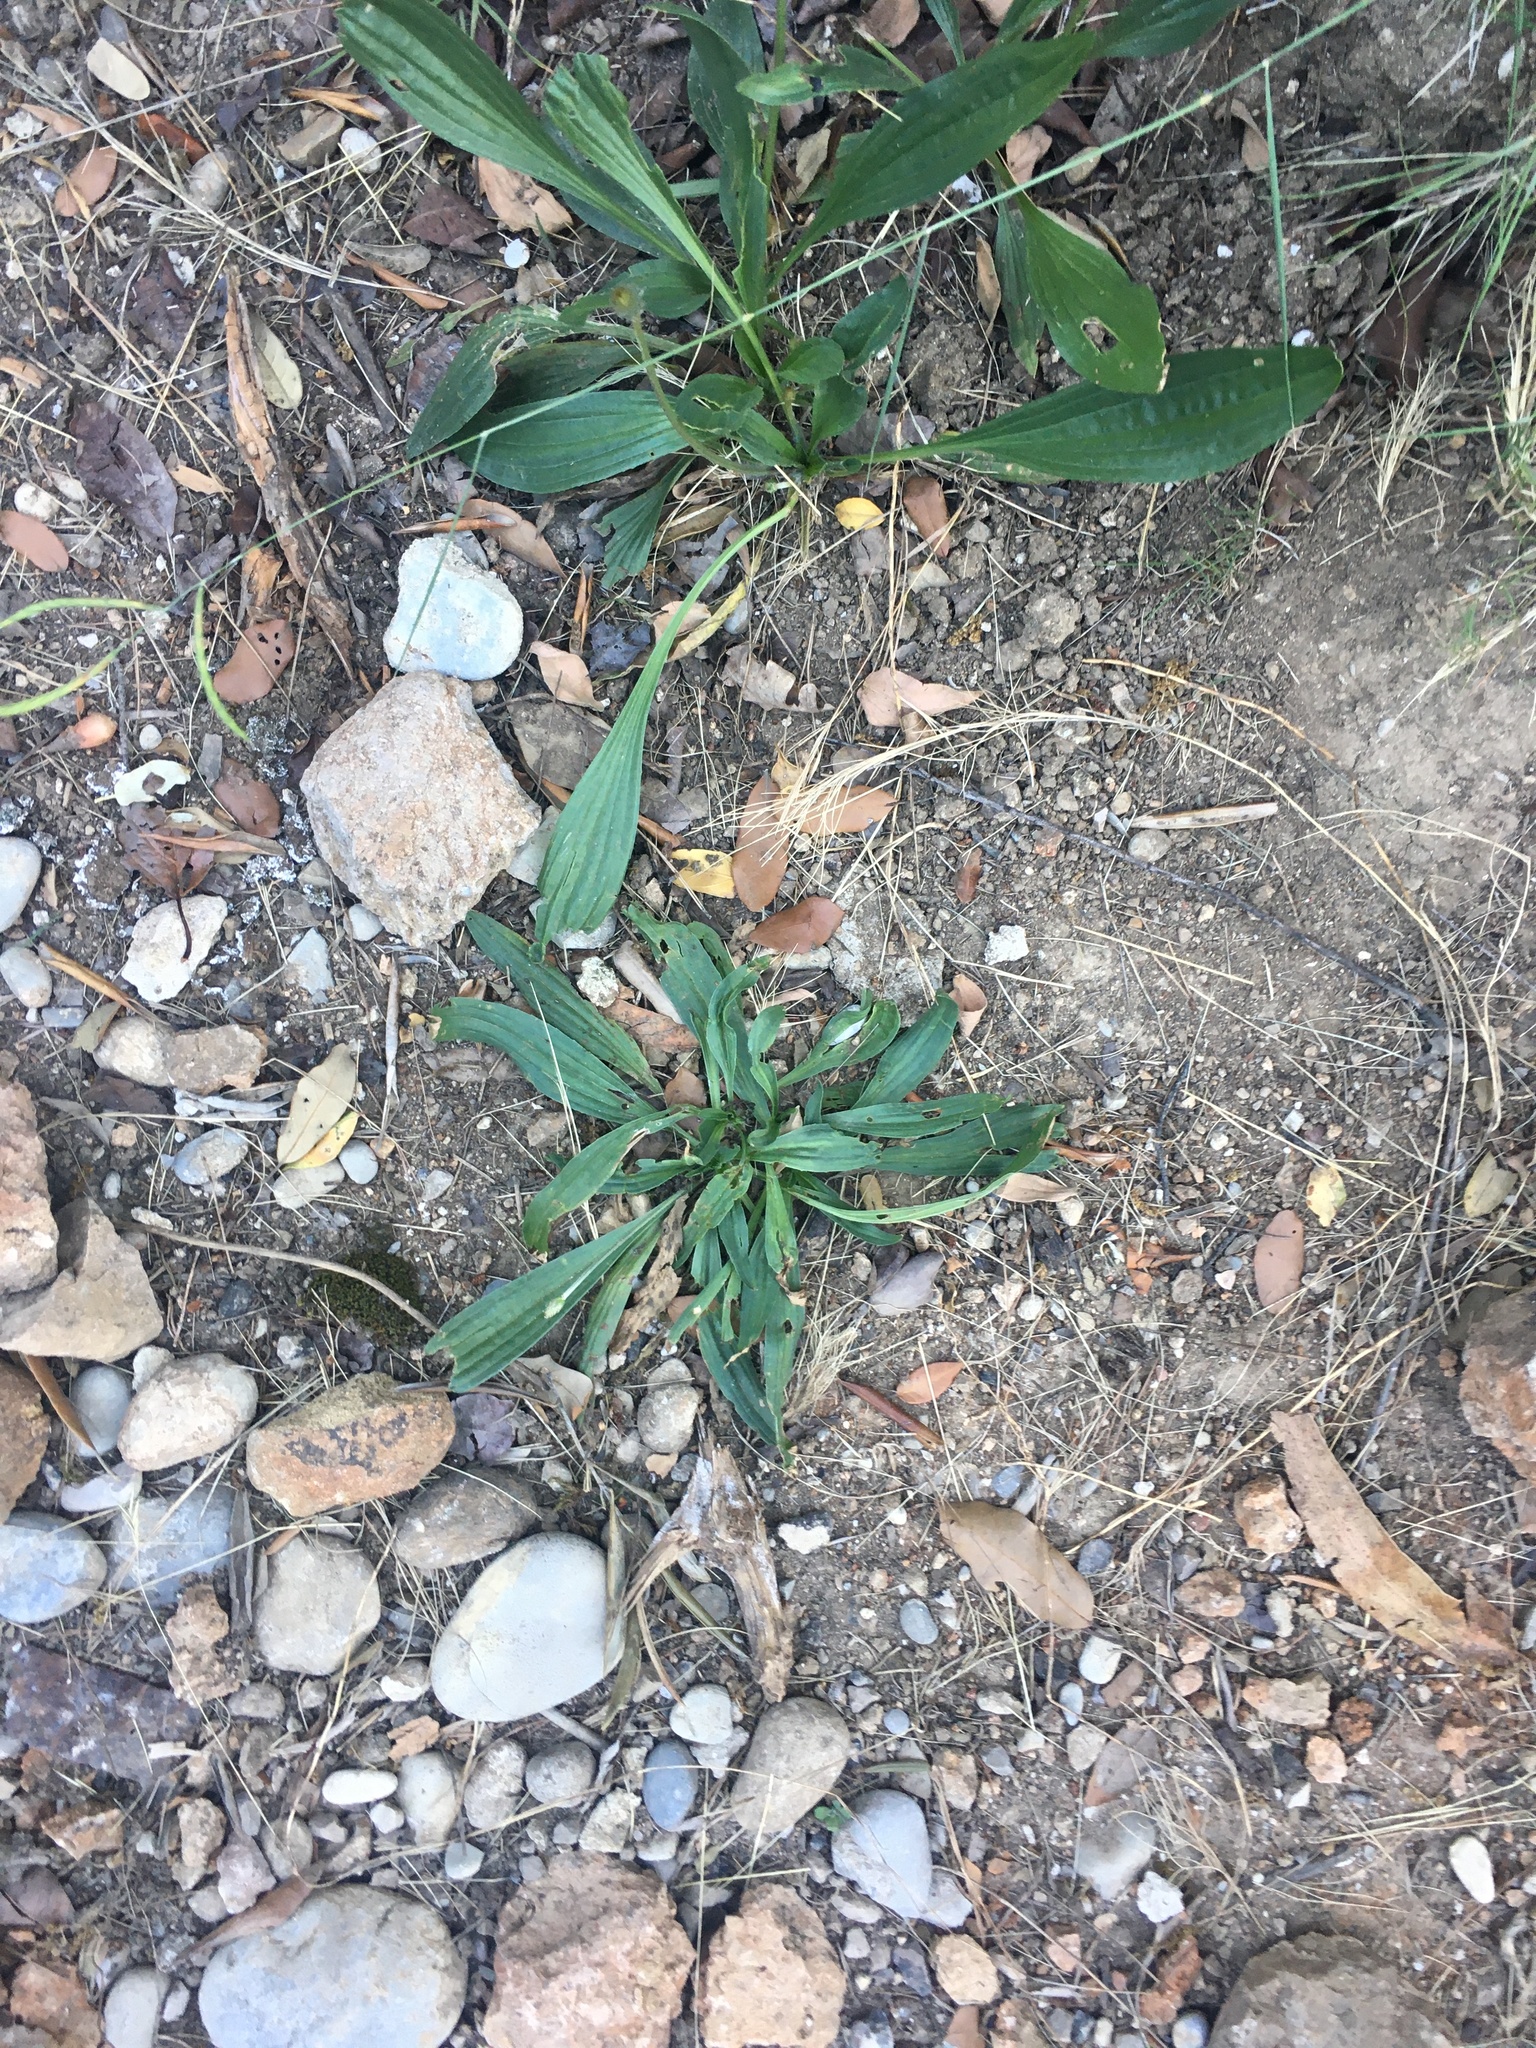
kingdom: Plantae
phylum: Tracheophyta
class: Magnoliopsida
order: Lamiales
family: Plantaginaceae
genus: Plantago
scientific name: Plantago lanceolata
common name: Ribwort plantain
